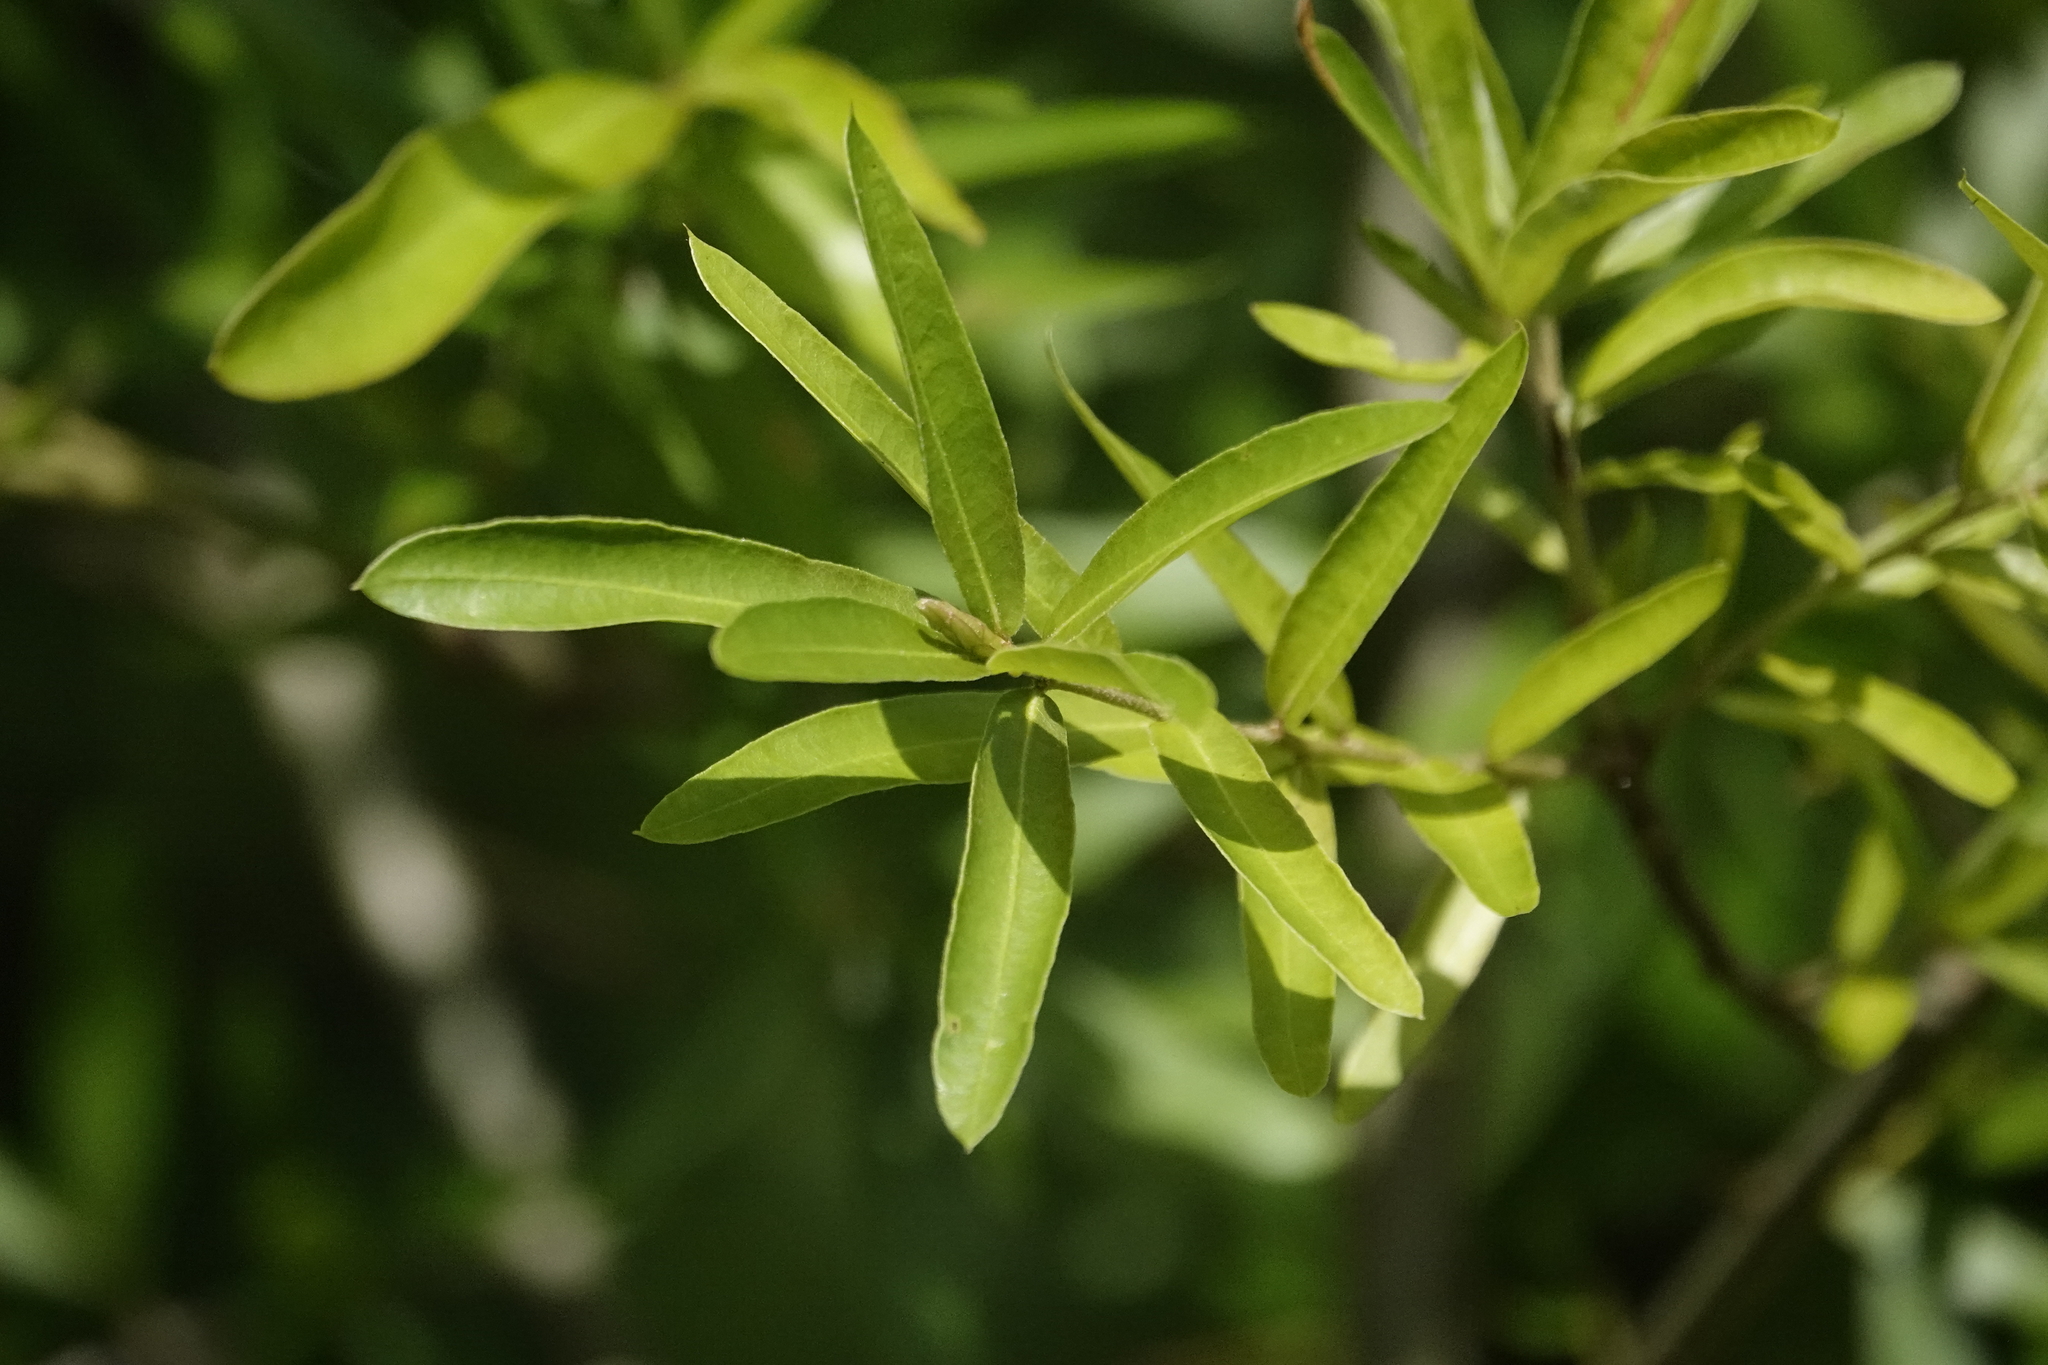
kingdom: Plantae
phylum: Tracheophyta
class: Magnoliopsida
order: Fagales
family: Fagaceae
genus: Quercus
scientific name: Quercus phellos
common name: Willow oak
